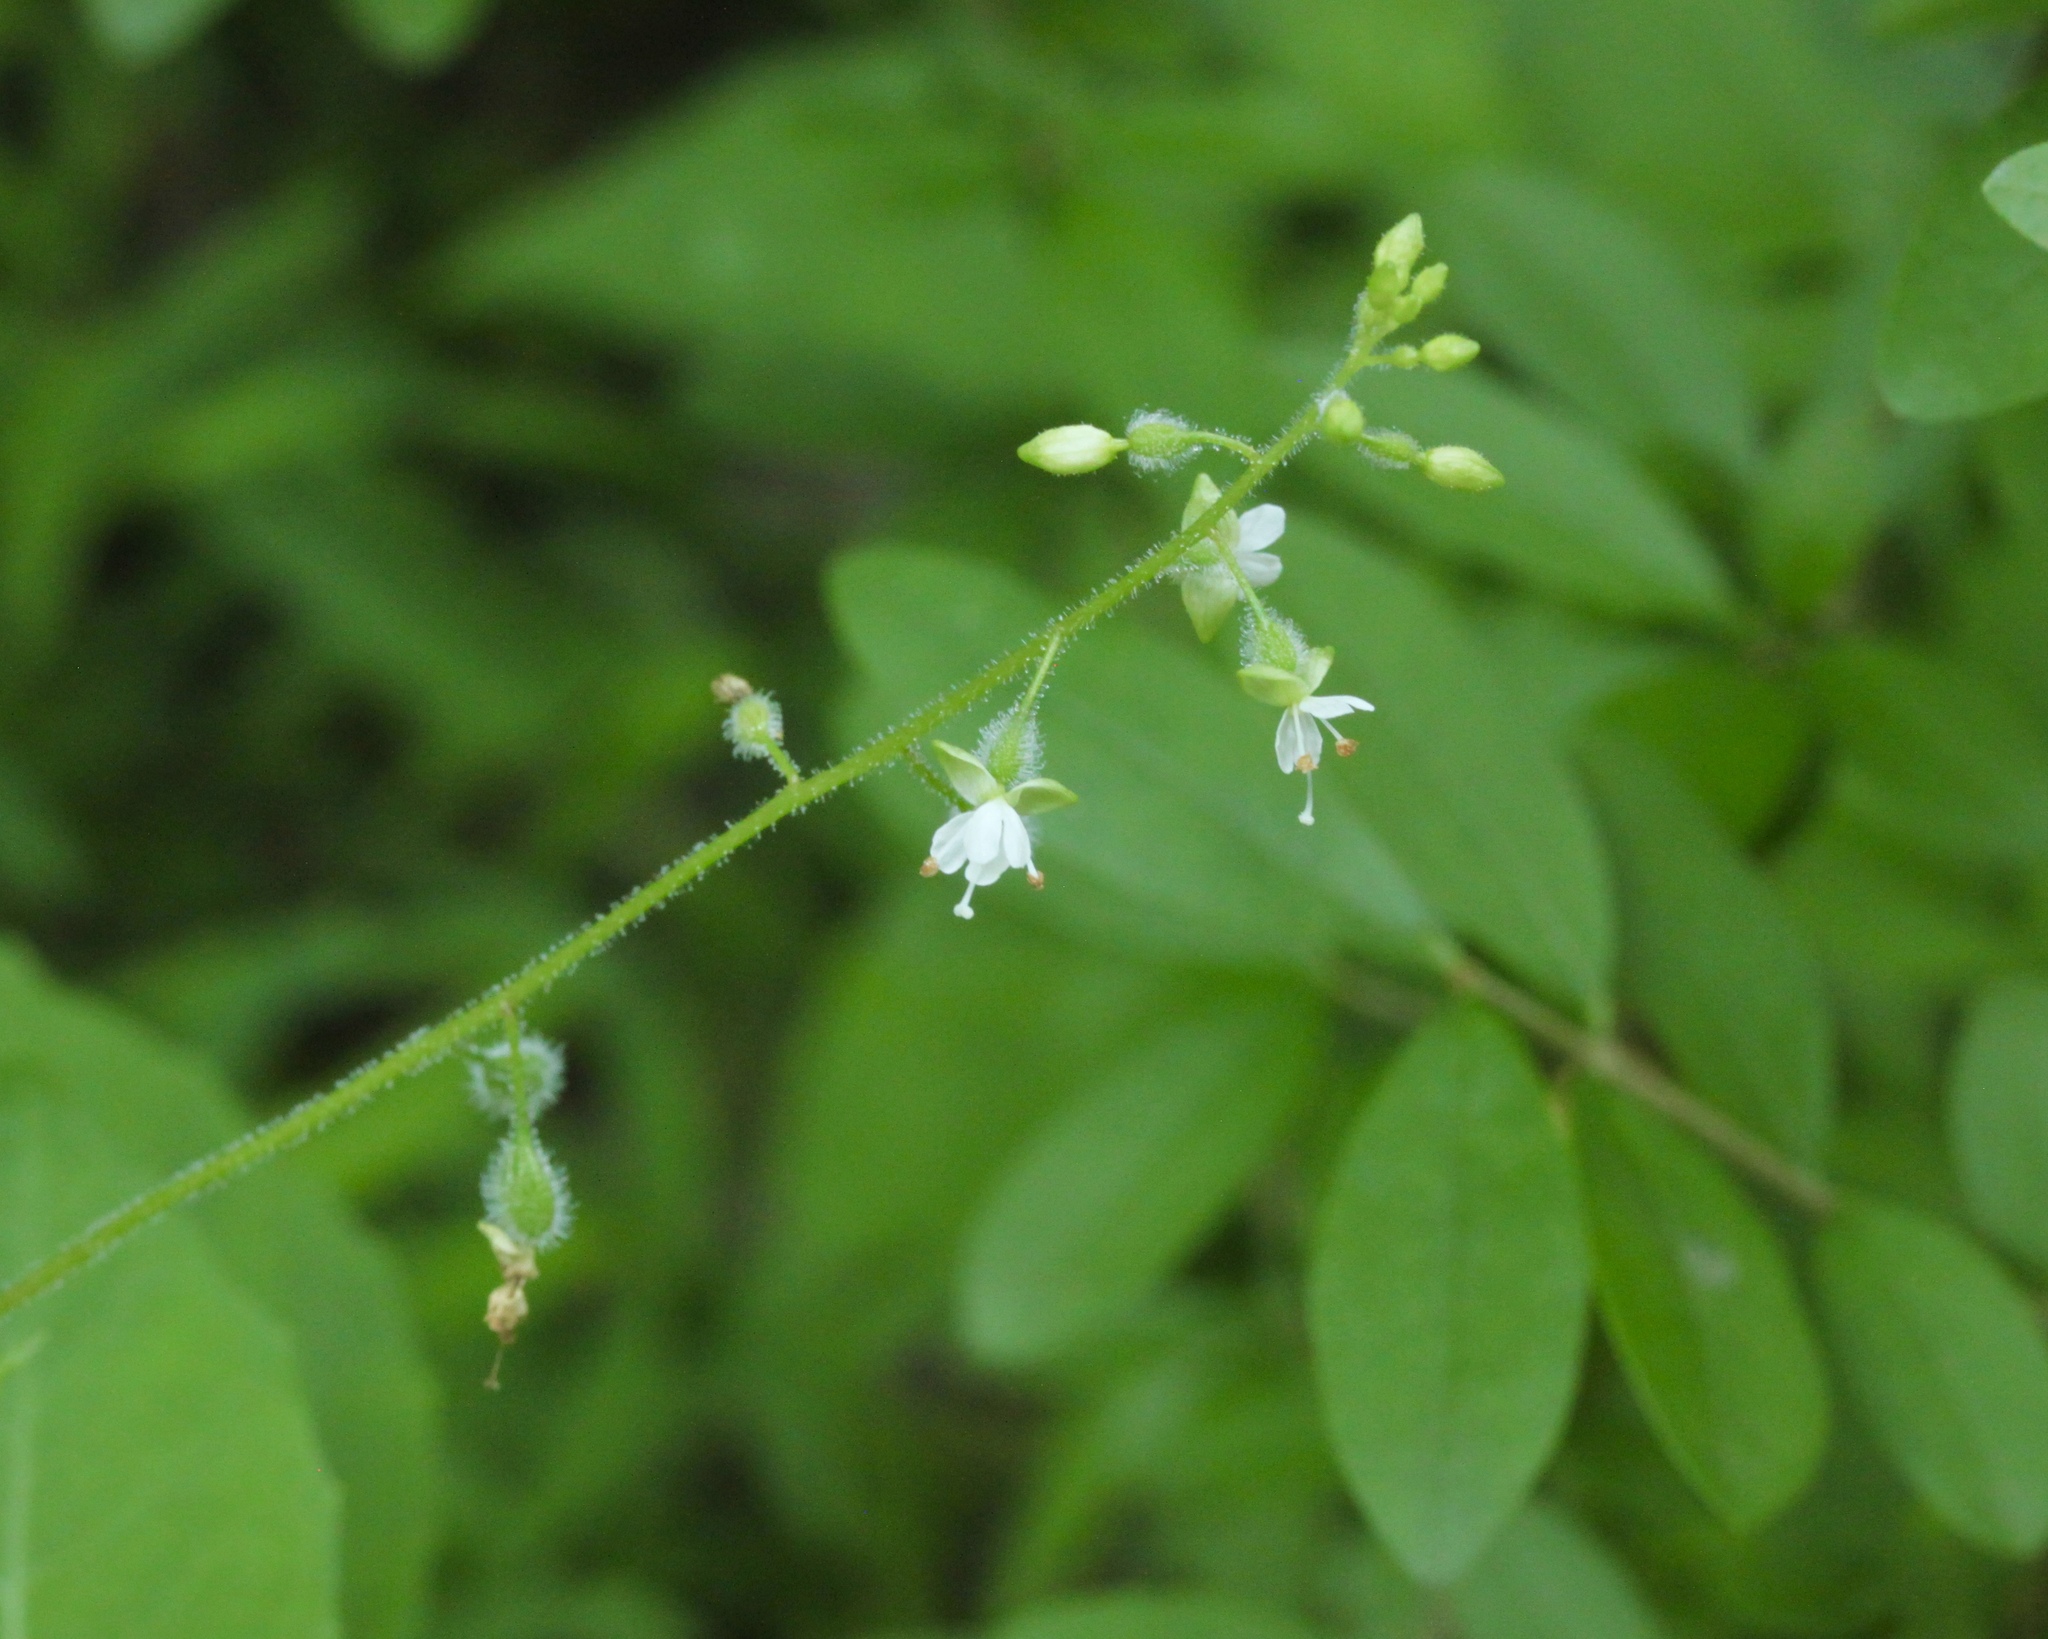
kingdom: Plantae
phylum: Tracheophyta
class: Magnoliopsida
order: Myrtales
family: Onagraceae
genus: Circaea
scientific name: Circaea canadensis
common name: Broad-leaved enchanter's nightshade
